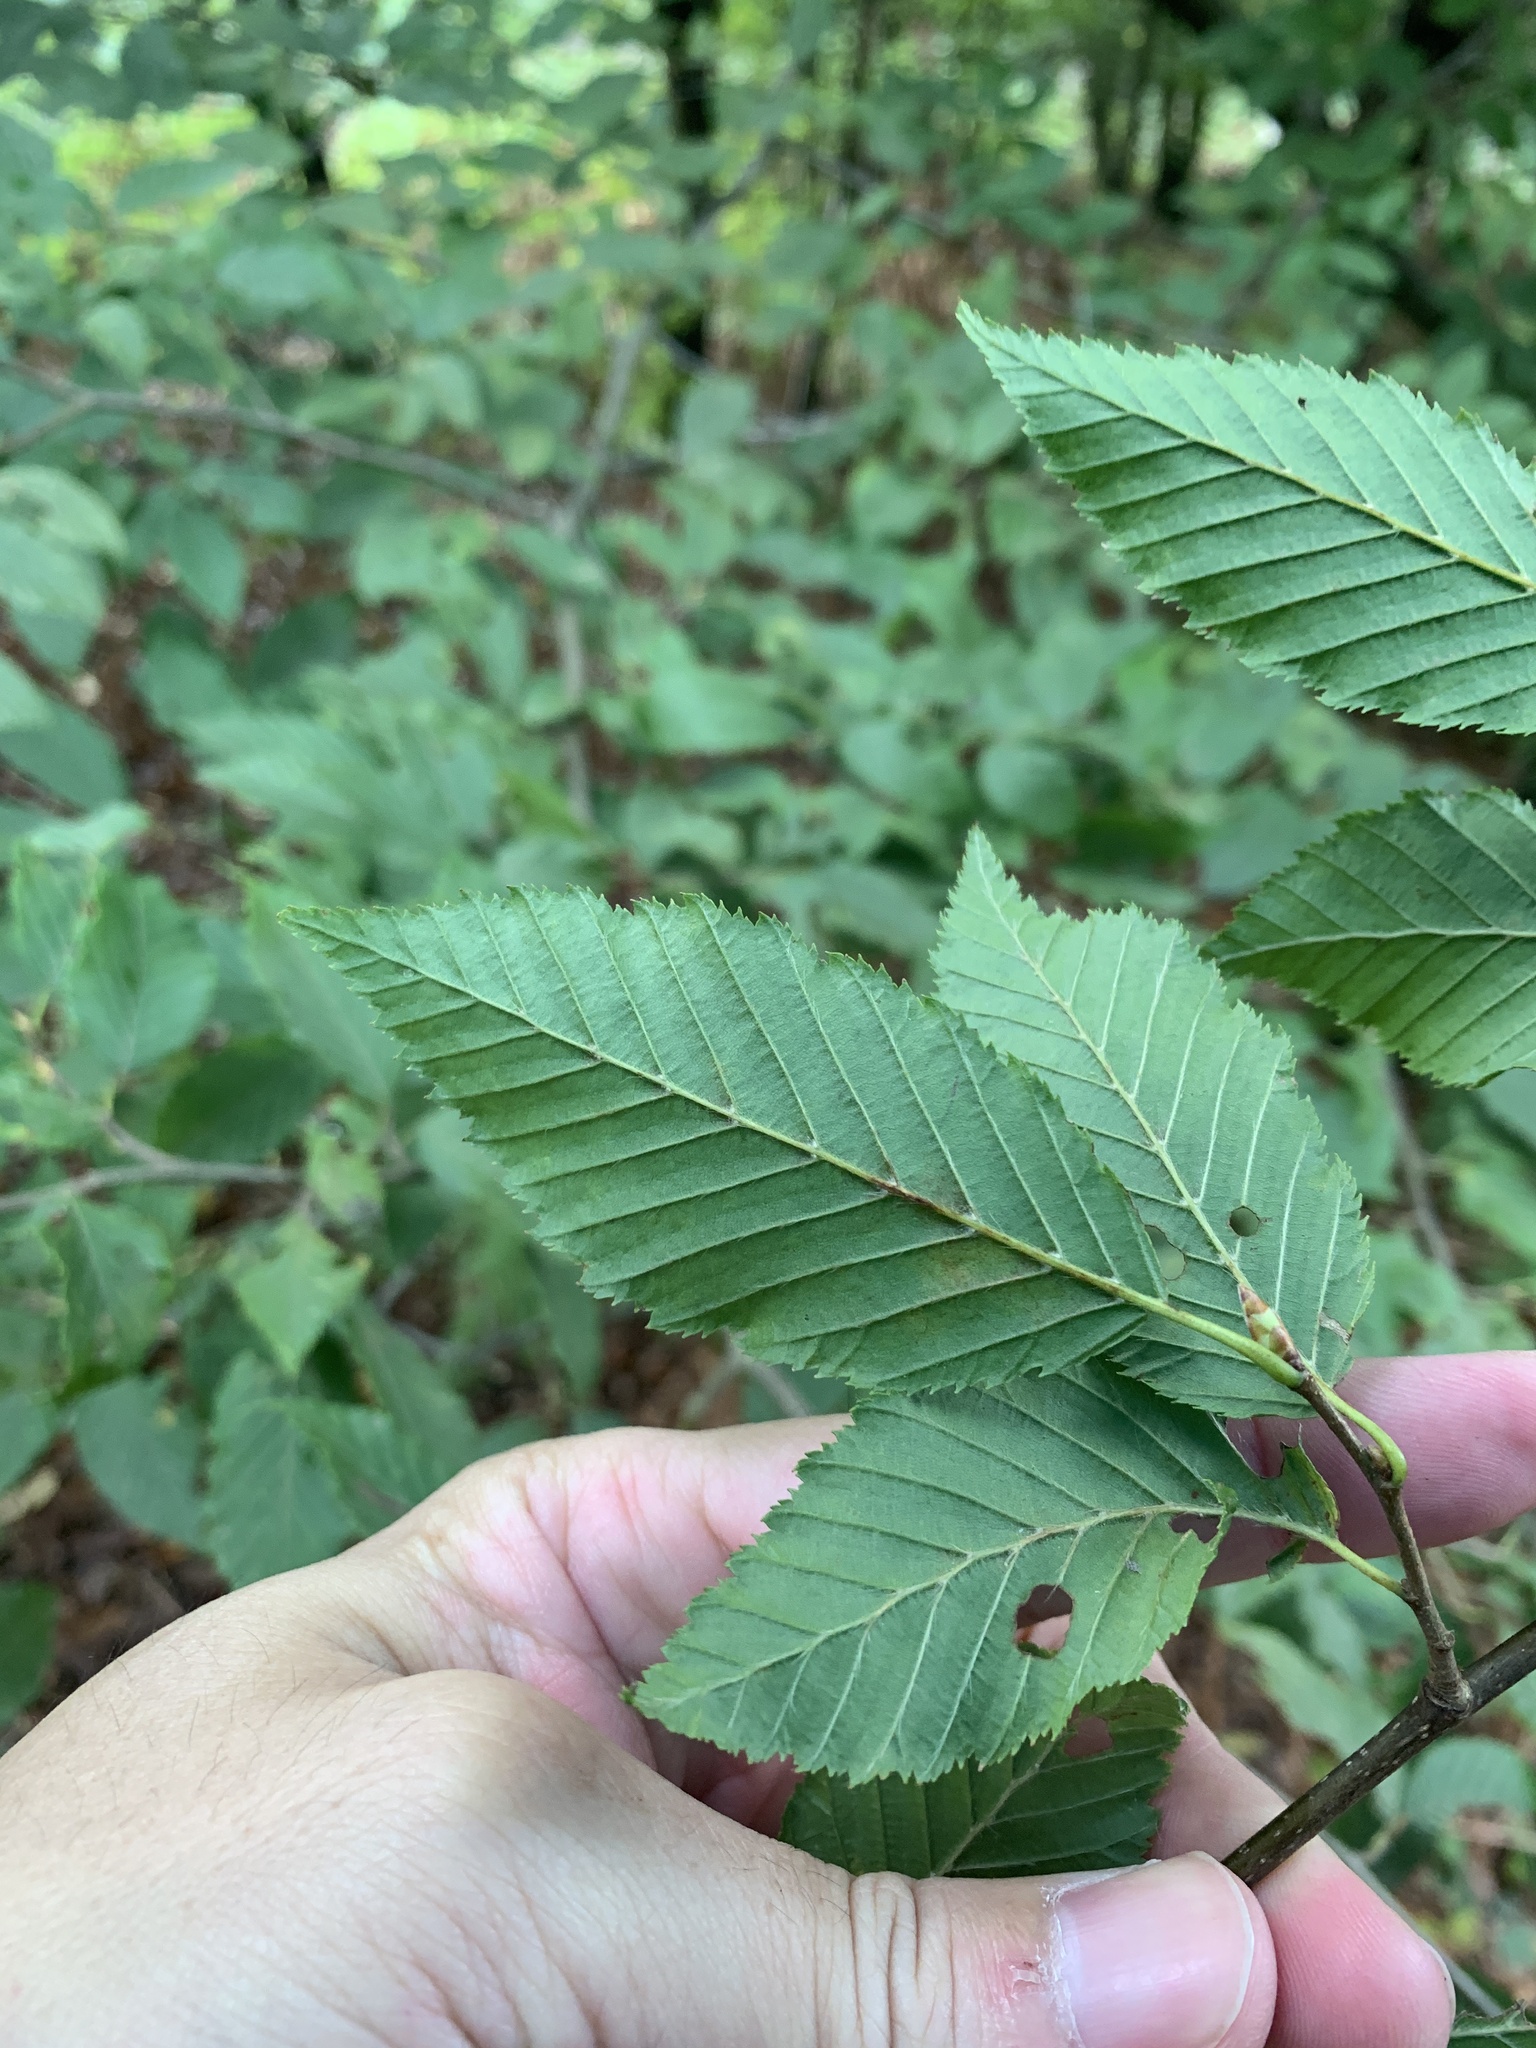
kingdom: Plantae
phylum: Tracheophyta
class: Magnoliopsida
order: Fagales
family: Betulaceae
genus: Carpinus
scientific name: Carpinus betulus
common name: Hornbeam
